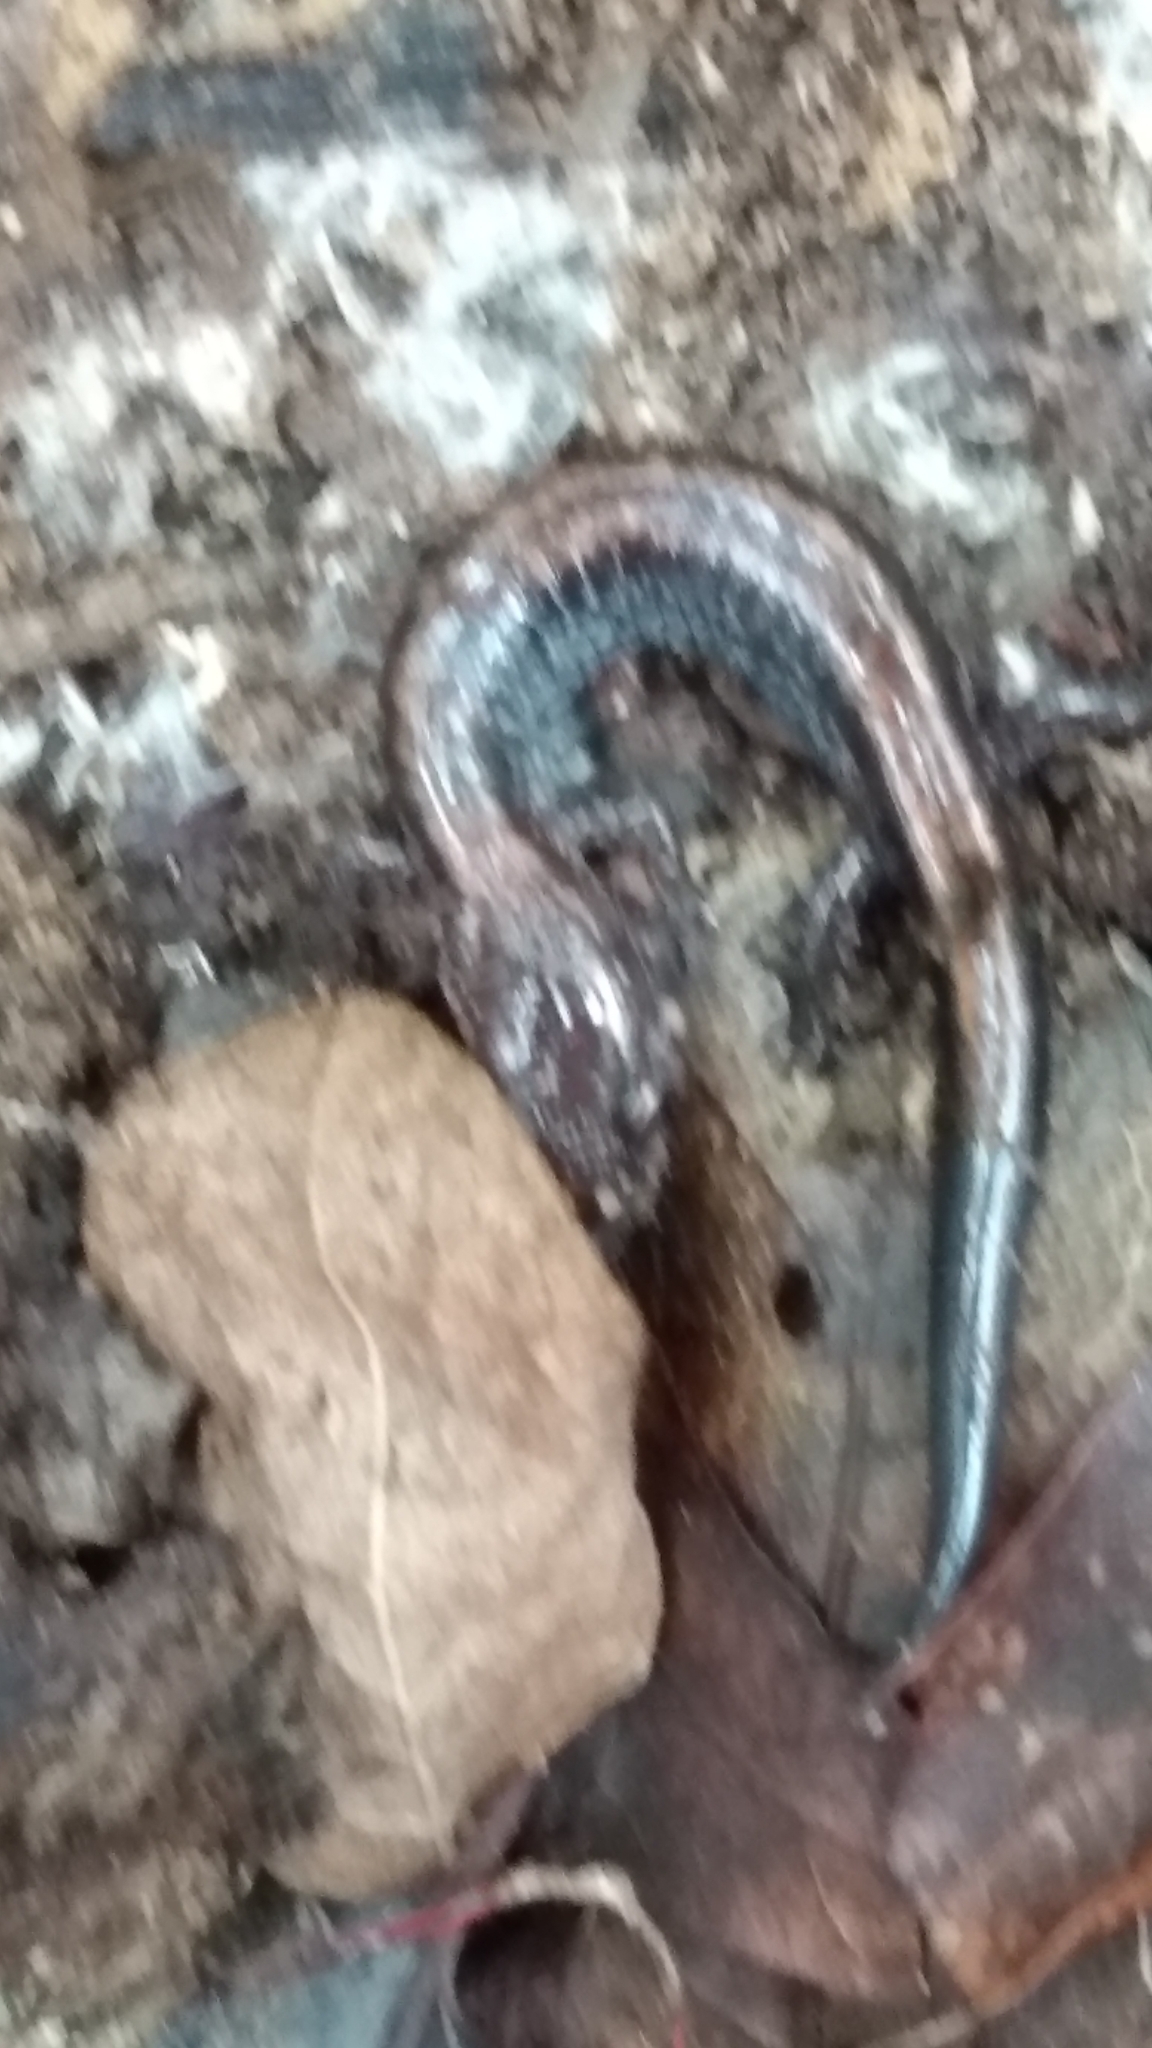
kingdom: Animalia
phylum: Chordata
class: Amphibia
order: Caudata
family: Plethodontidae
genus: Plethodon
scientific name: Plethodon cinereus
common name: Redback salamander
